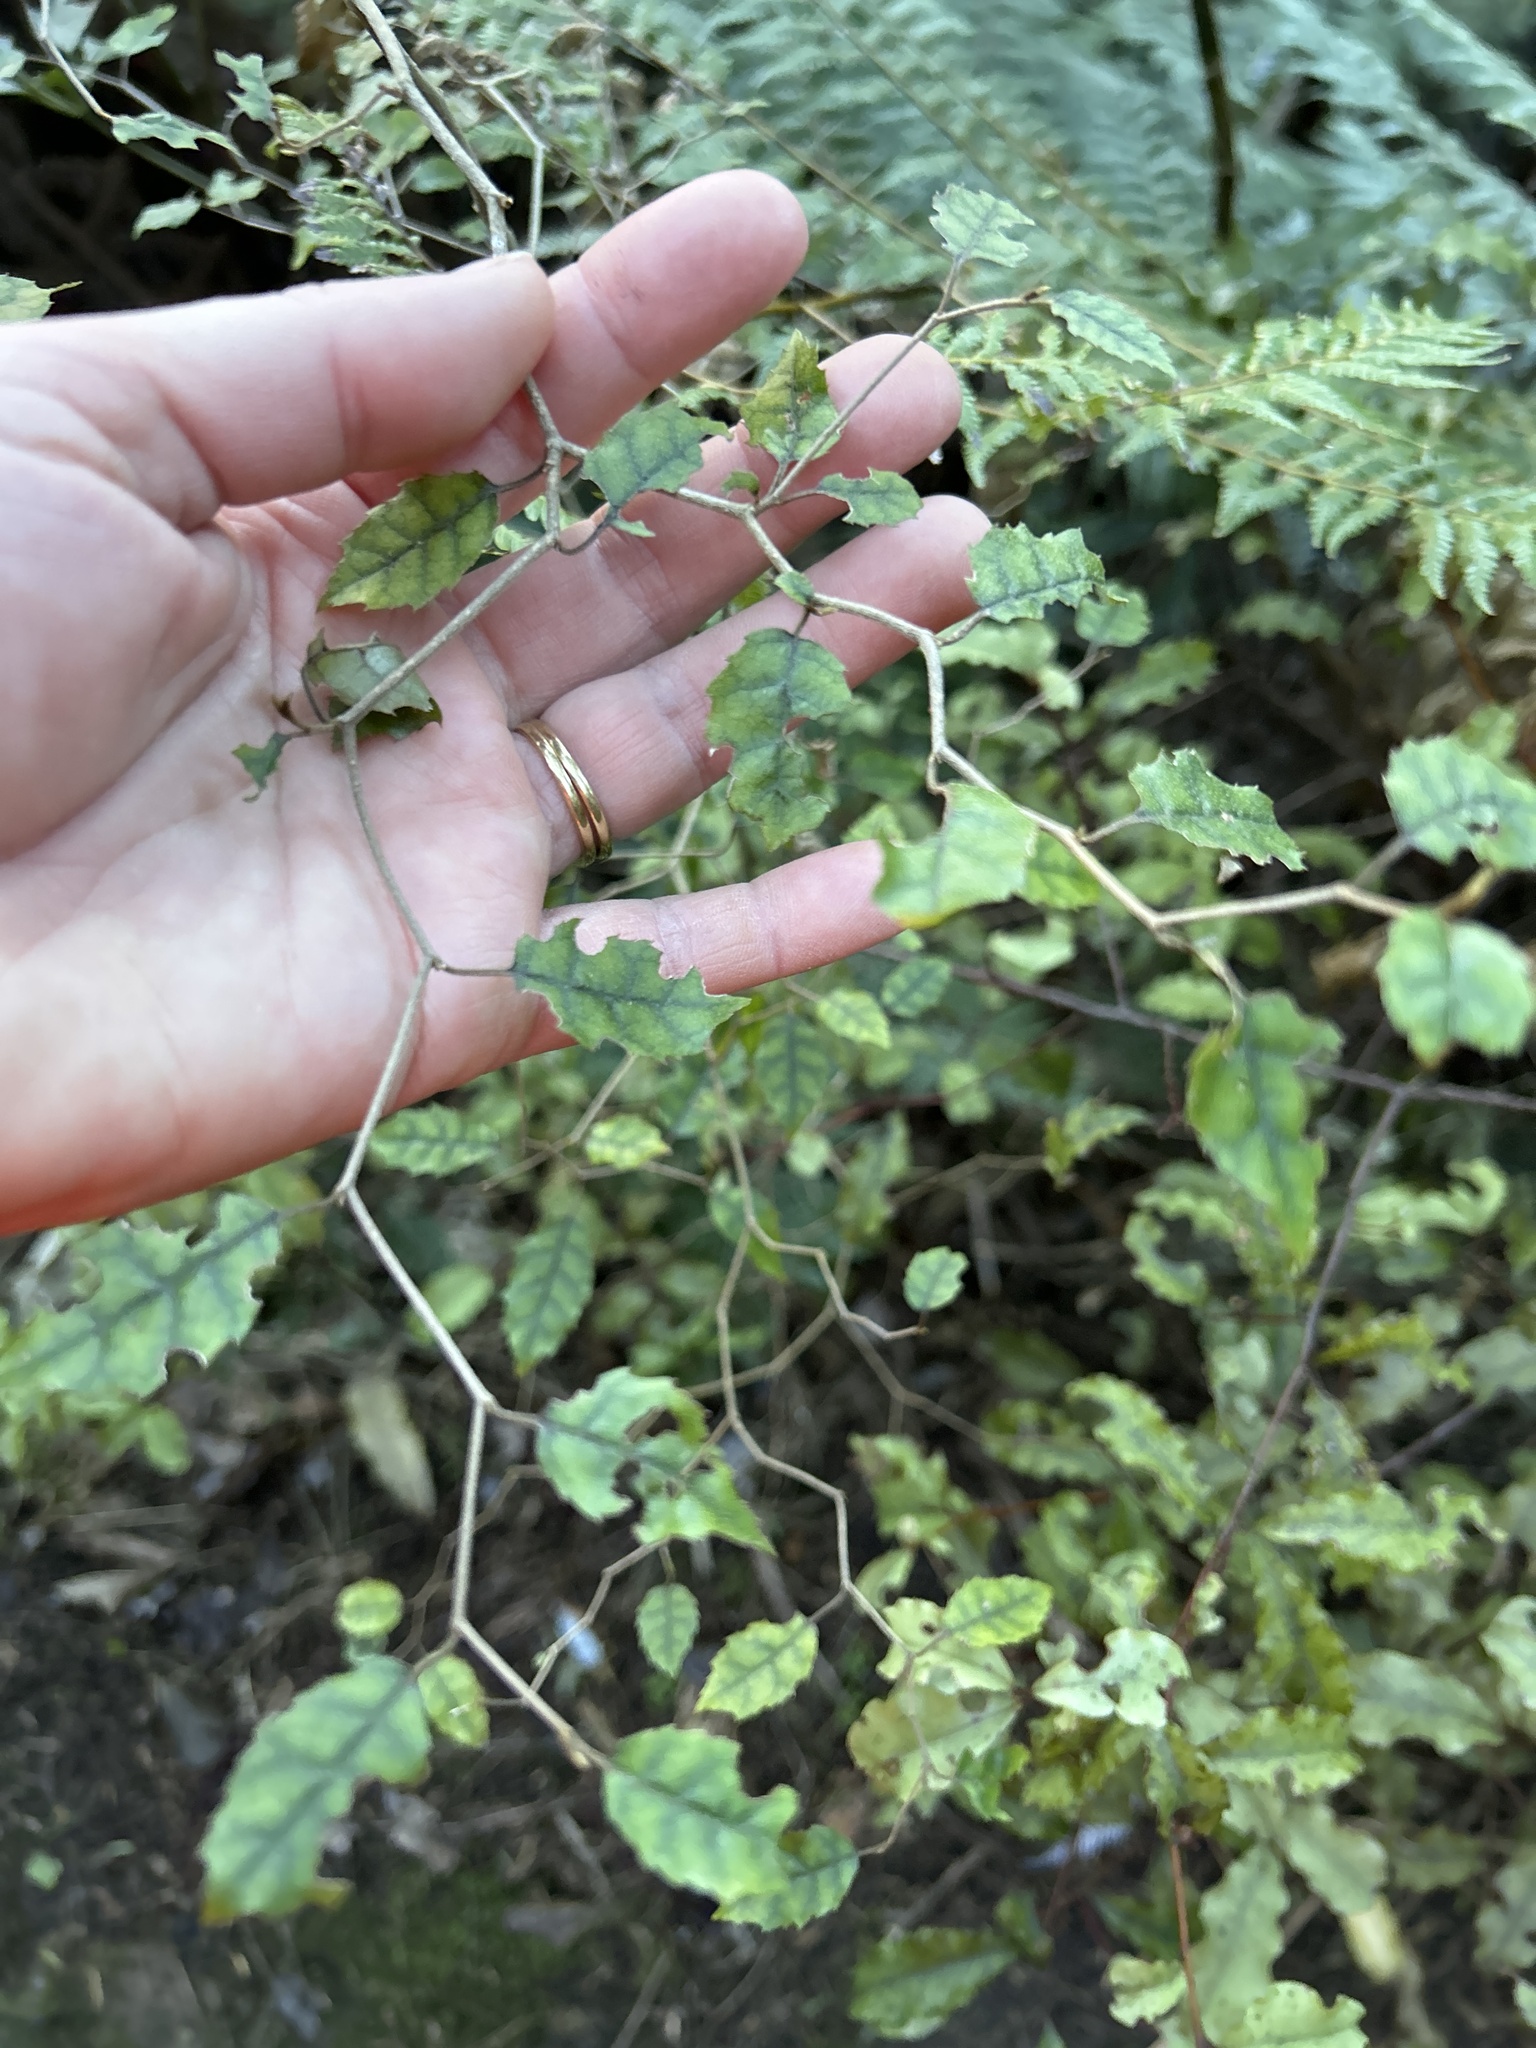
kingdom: Plantae
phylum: Tracheophyta
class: Magnoliopsida
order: Asterales
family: Rousseaceae
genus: Carpodetus
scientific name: Carpodetus serratus
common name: White mapau
